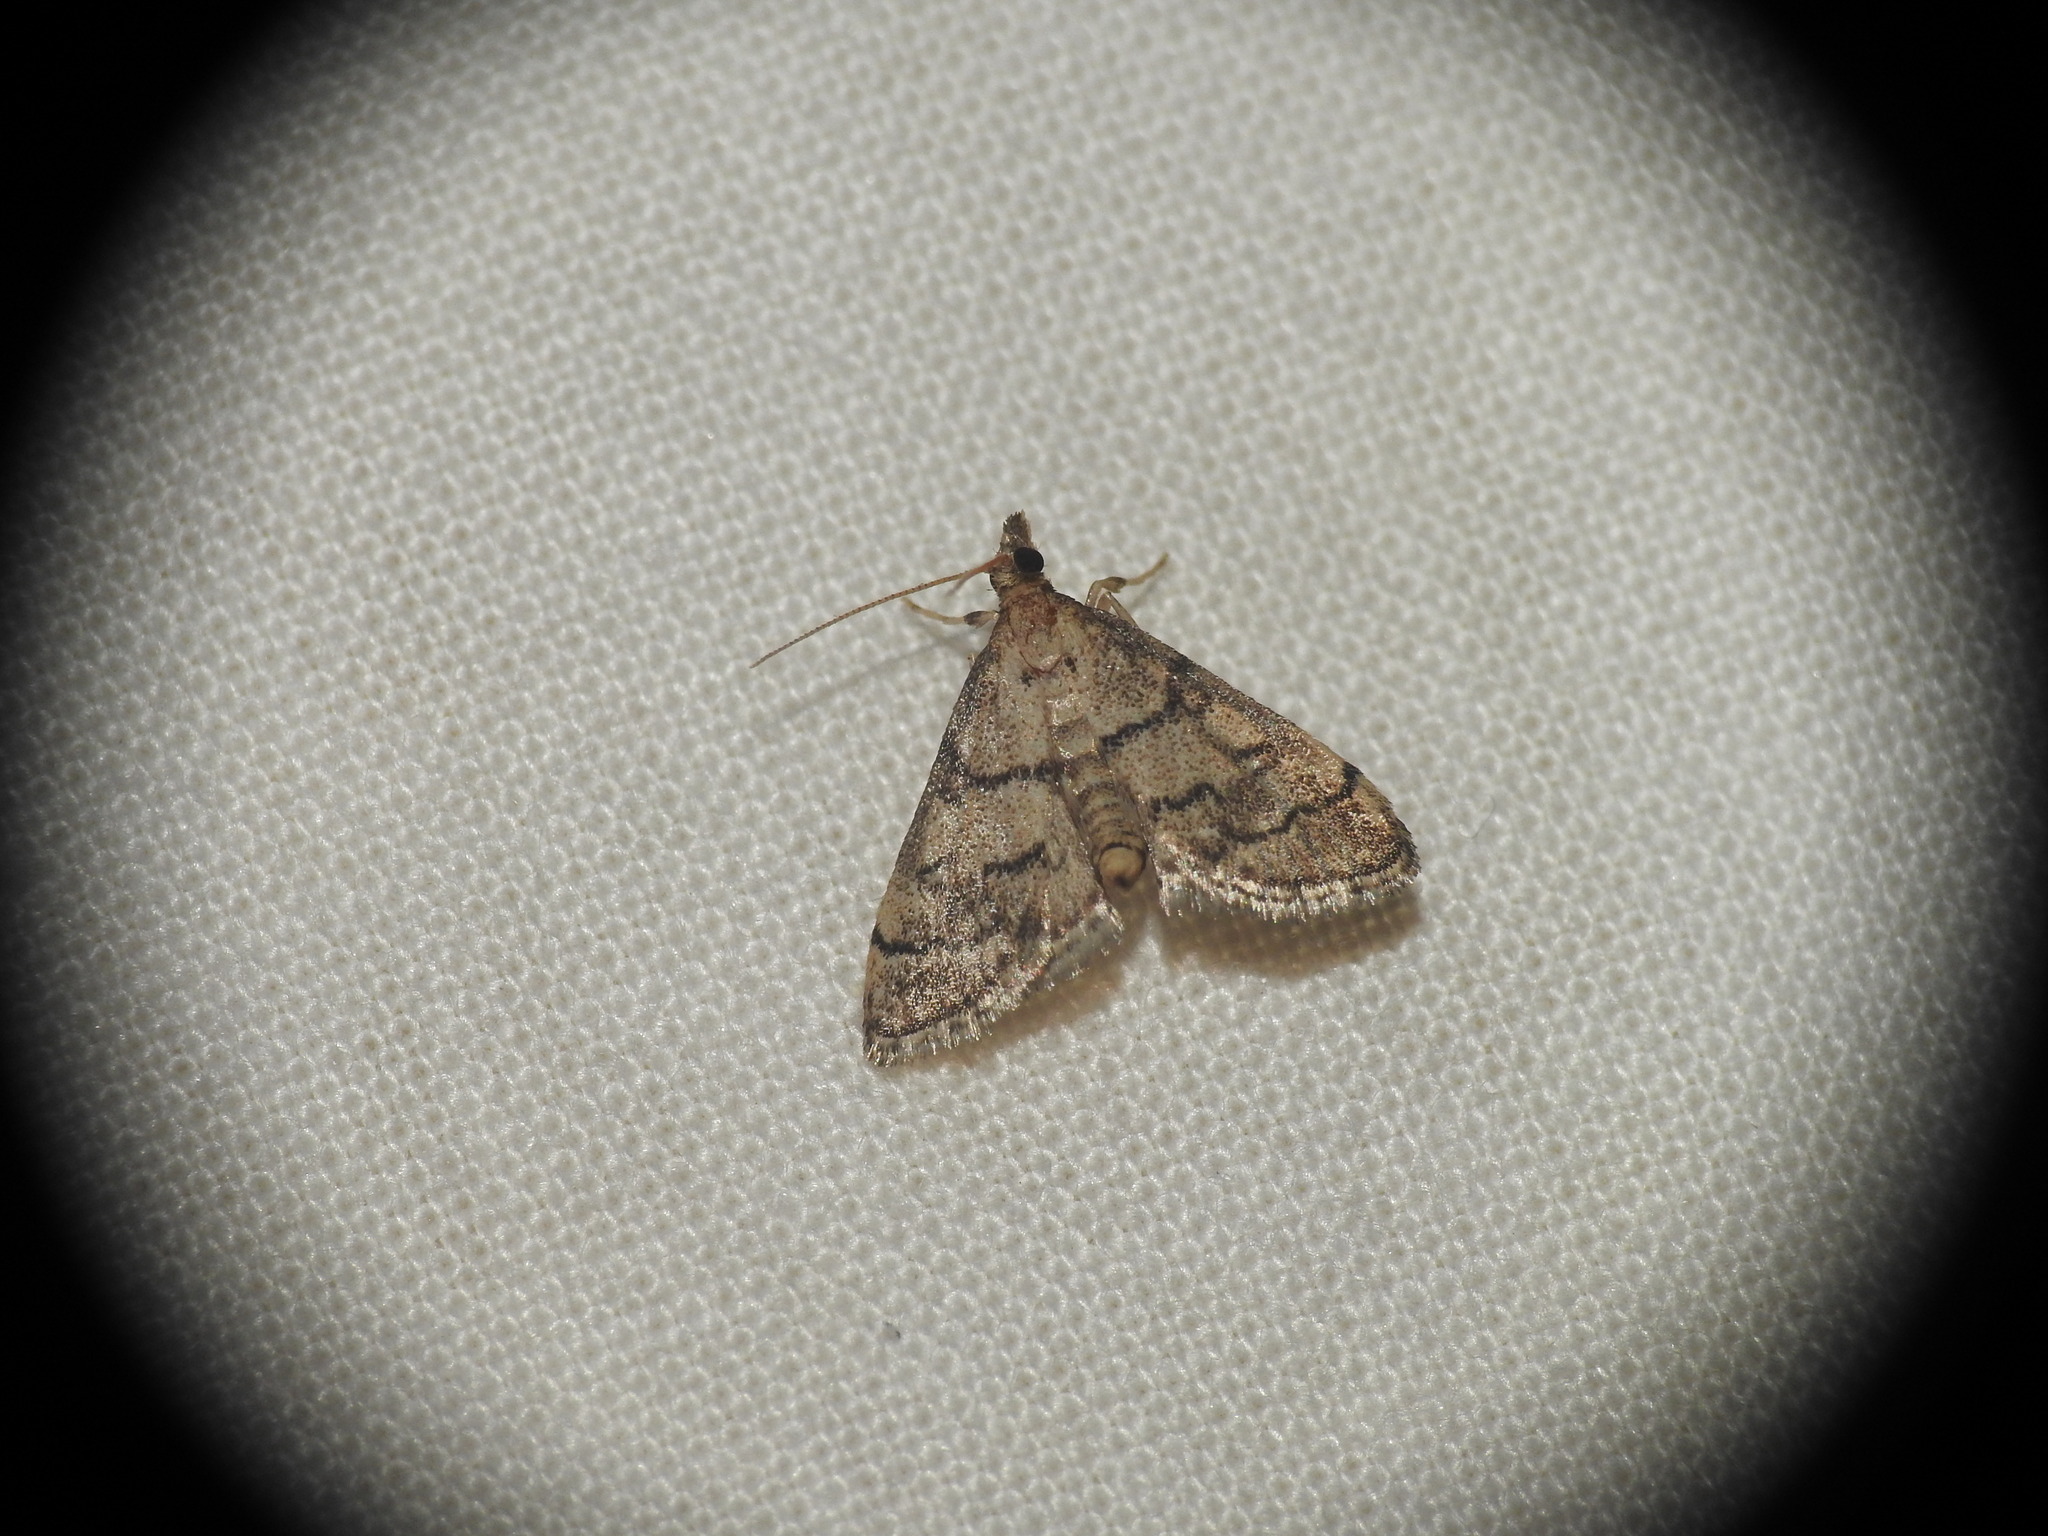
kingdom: Animalia
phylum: Arthropoda
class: Insecta
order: Lepidoptera
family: Crambidae
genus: Metasia
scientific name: Metasia cuencalis
